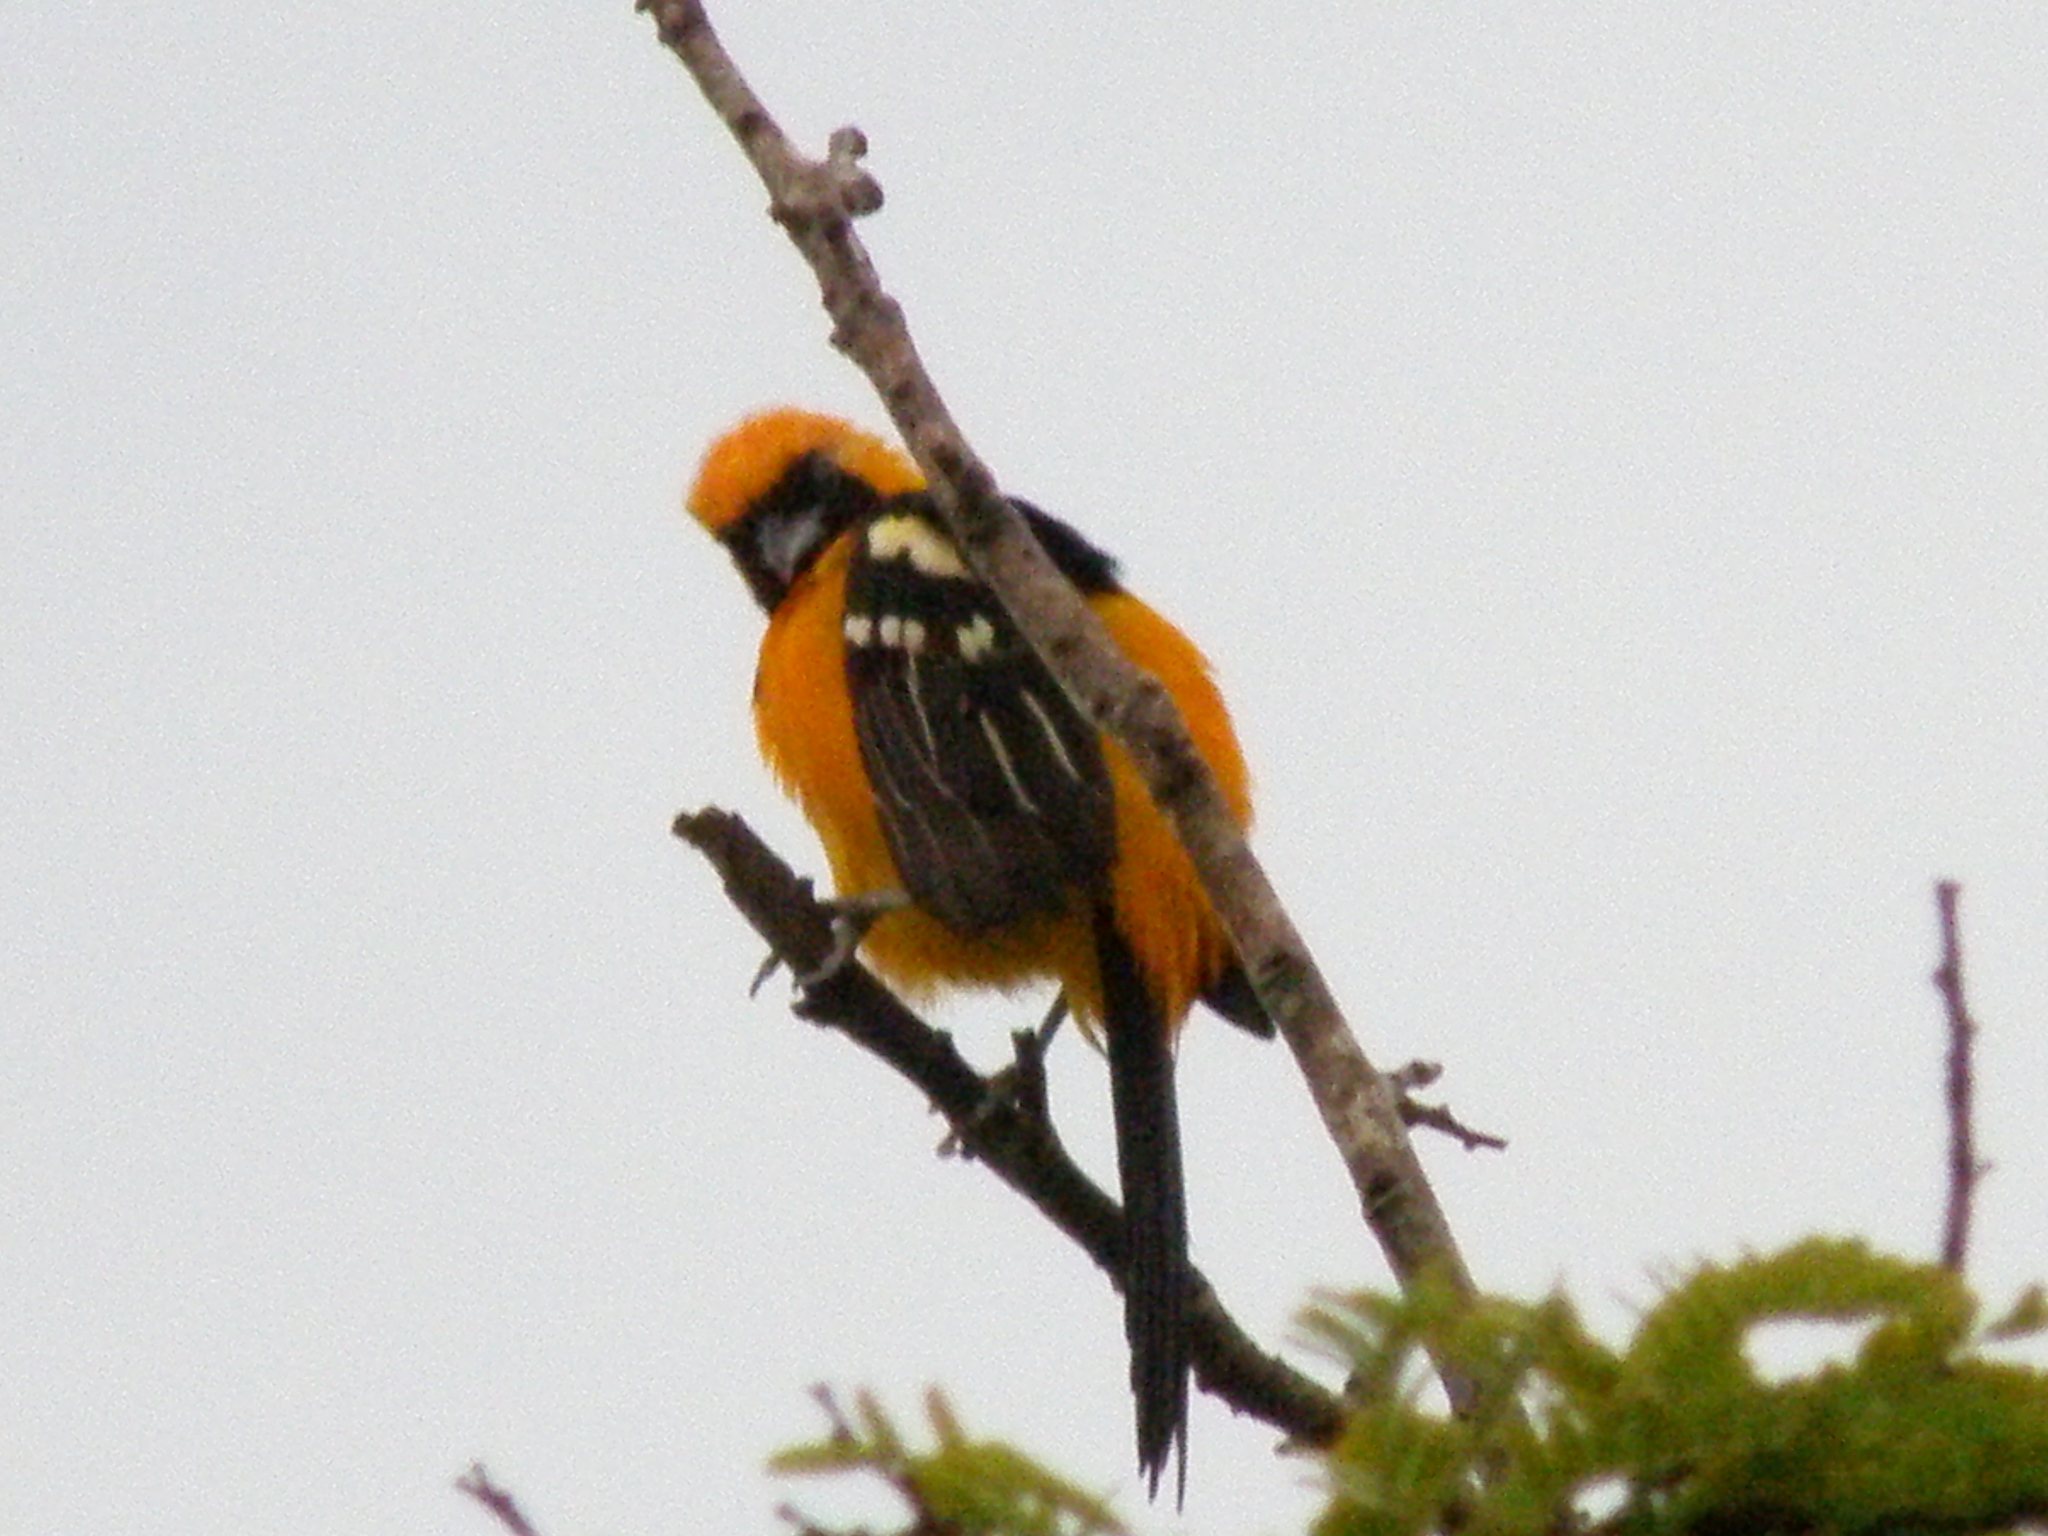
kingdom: Animalia
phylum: Chordata
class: Aves
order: Passeriformes
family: Icteridae
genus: Icterus
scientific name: Icterus cucullatus
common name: Hooded oriole
